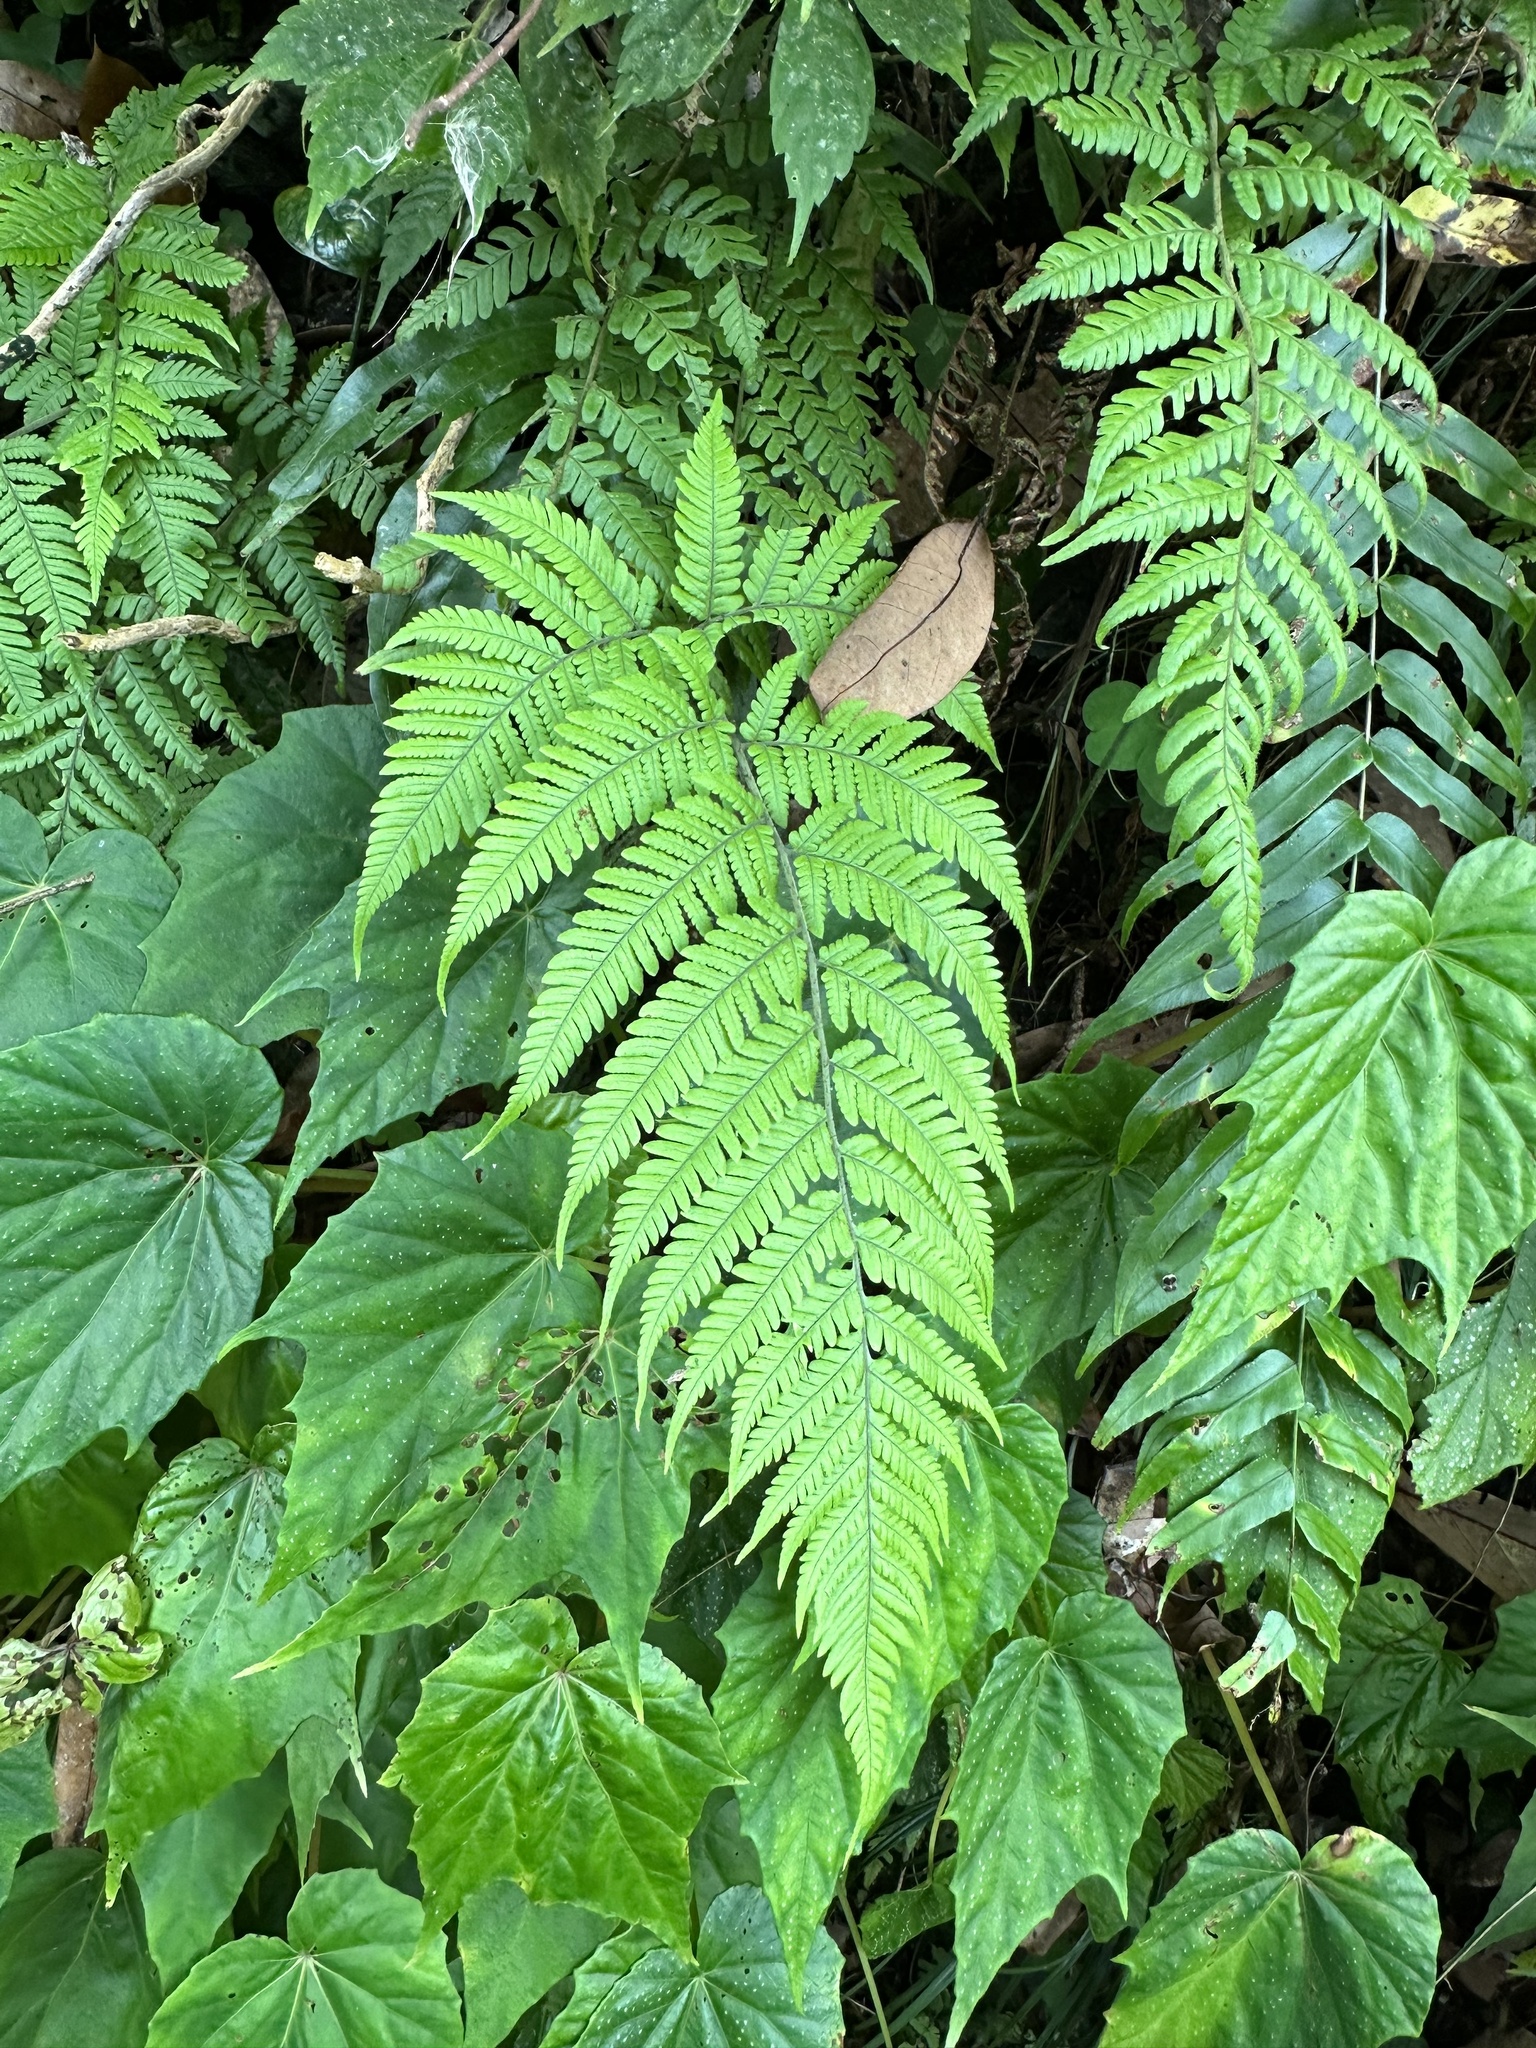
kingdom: Plantae
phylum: Tracheophyta
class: Polypodiopsida
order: Polypodiales
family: Dryopteridaceae
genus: Ctenitis
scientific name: Ctenitis eatonii
